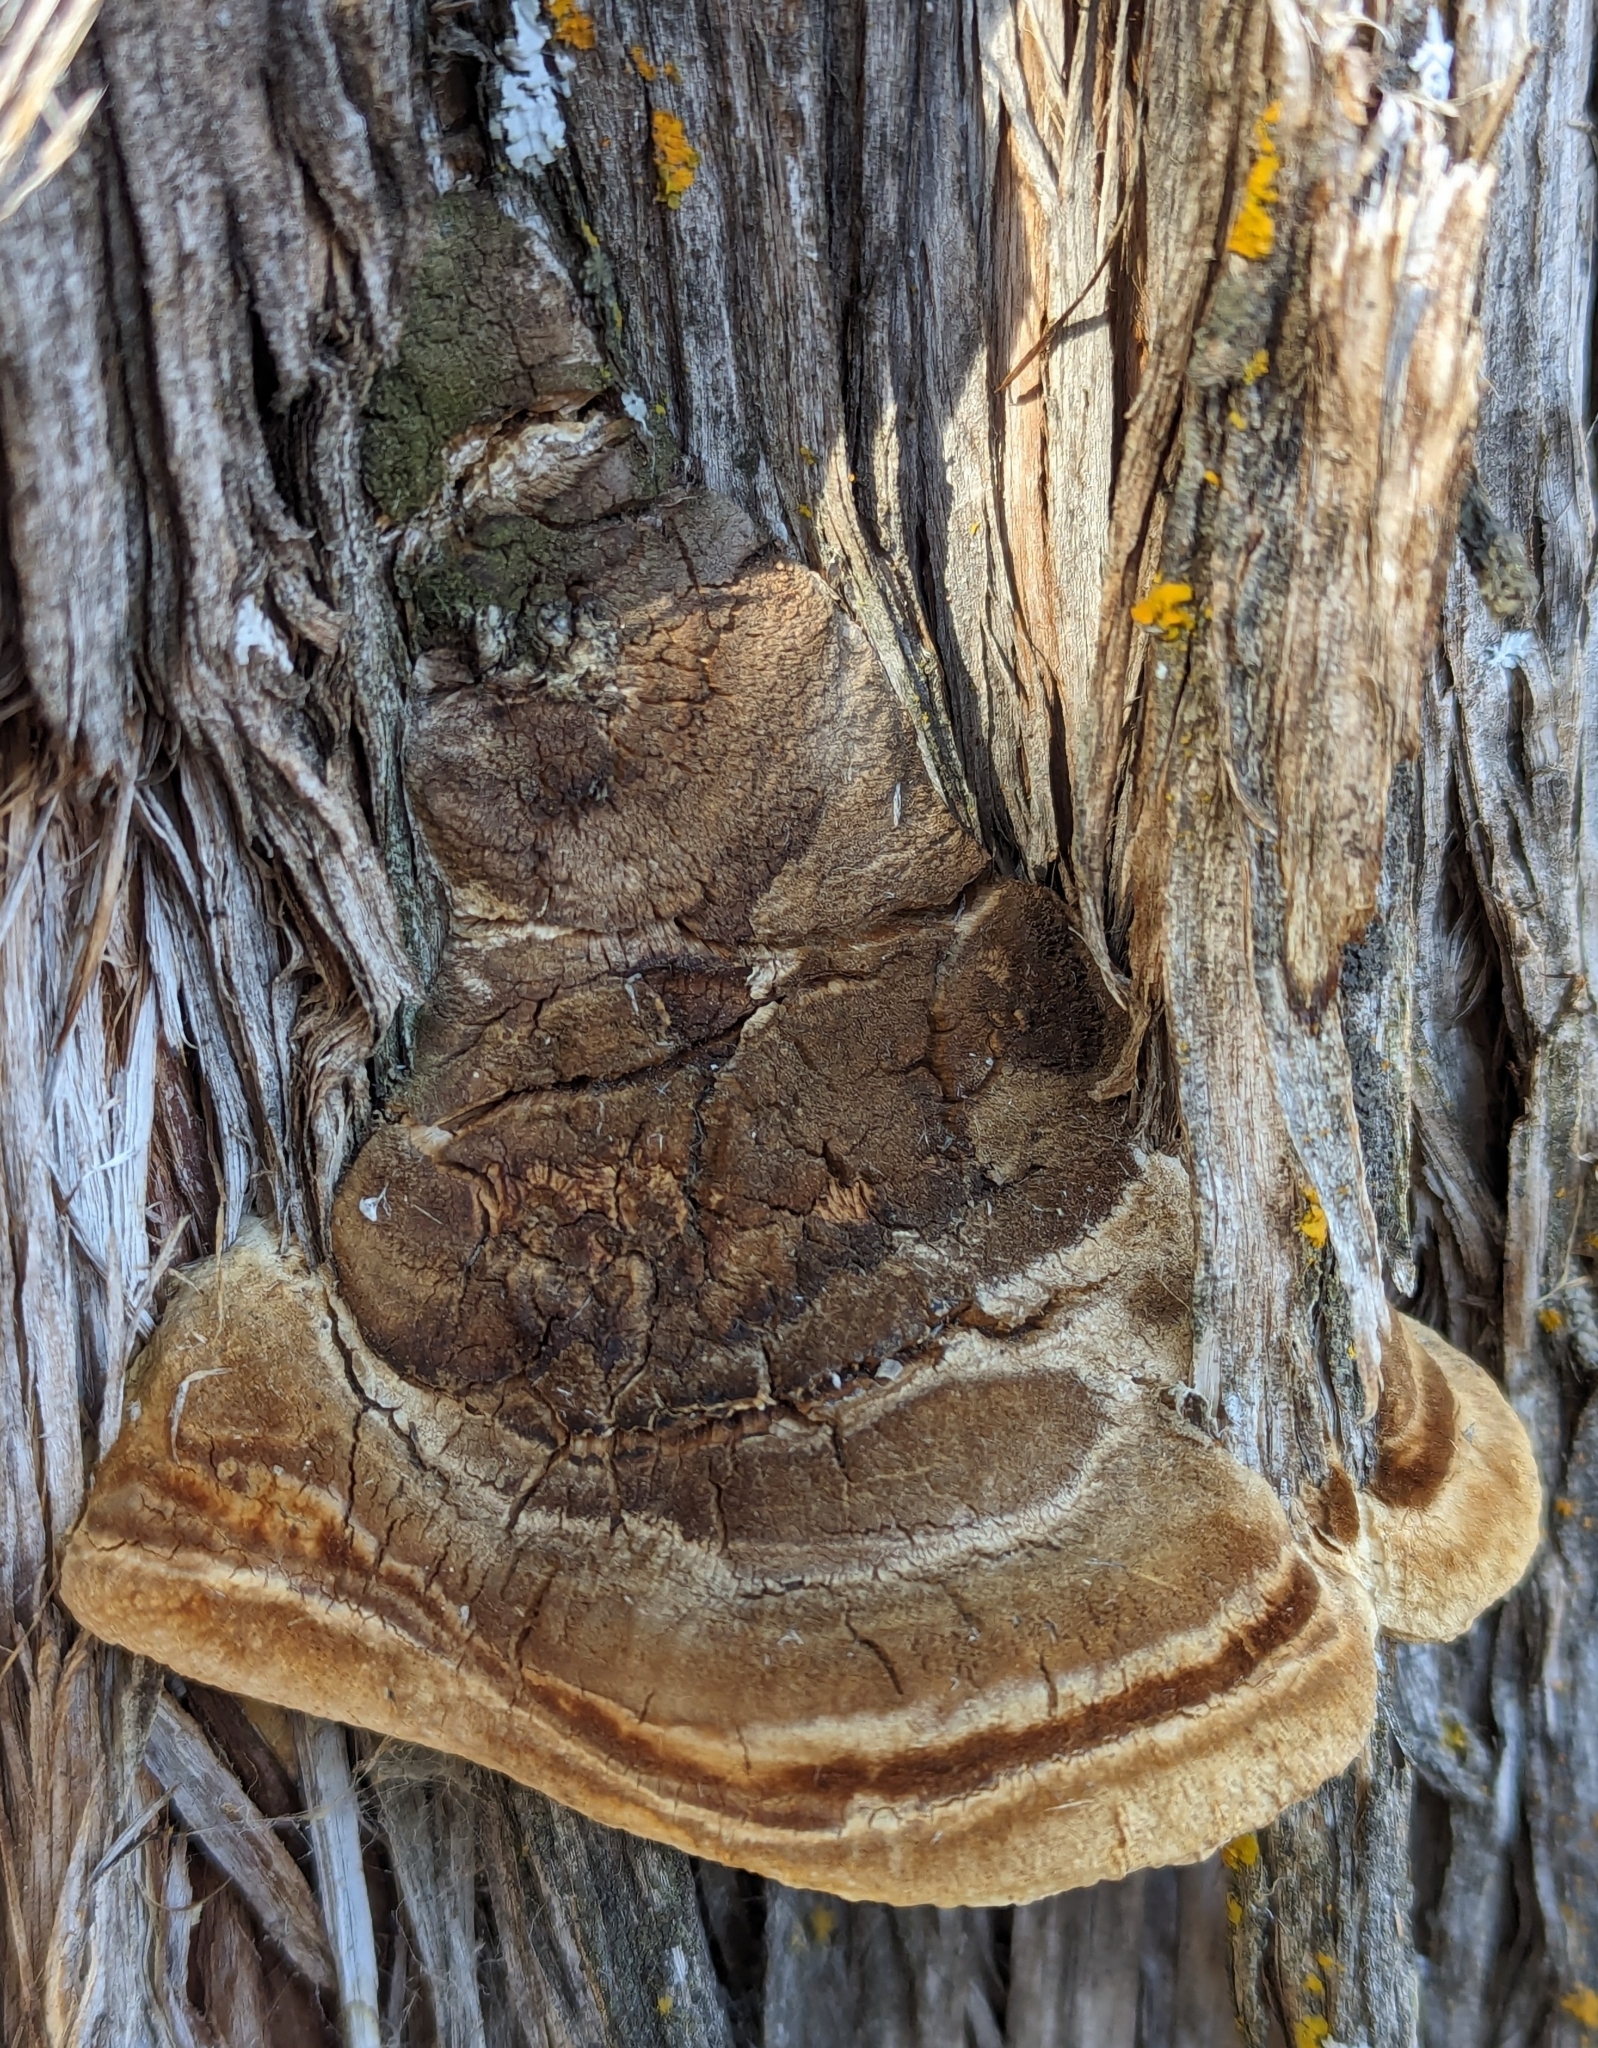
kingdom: Fungi
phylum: Basidiomycota
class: Agaricomycetes
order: Polyporales
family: Polyporaceae
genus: Pyrofomes
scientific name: Pyrofomes juniperinus
